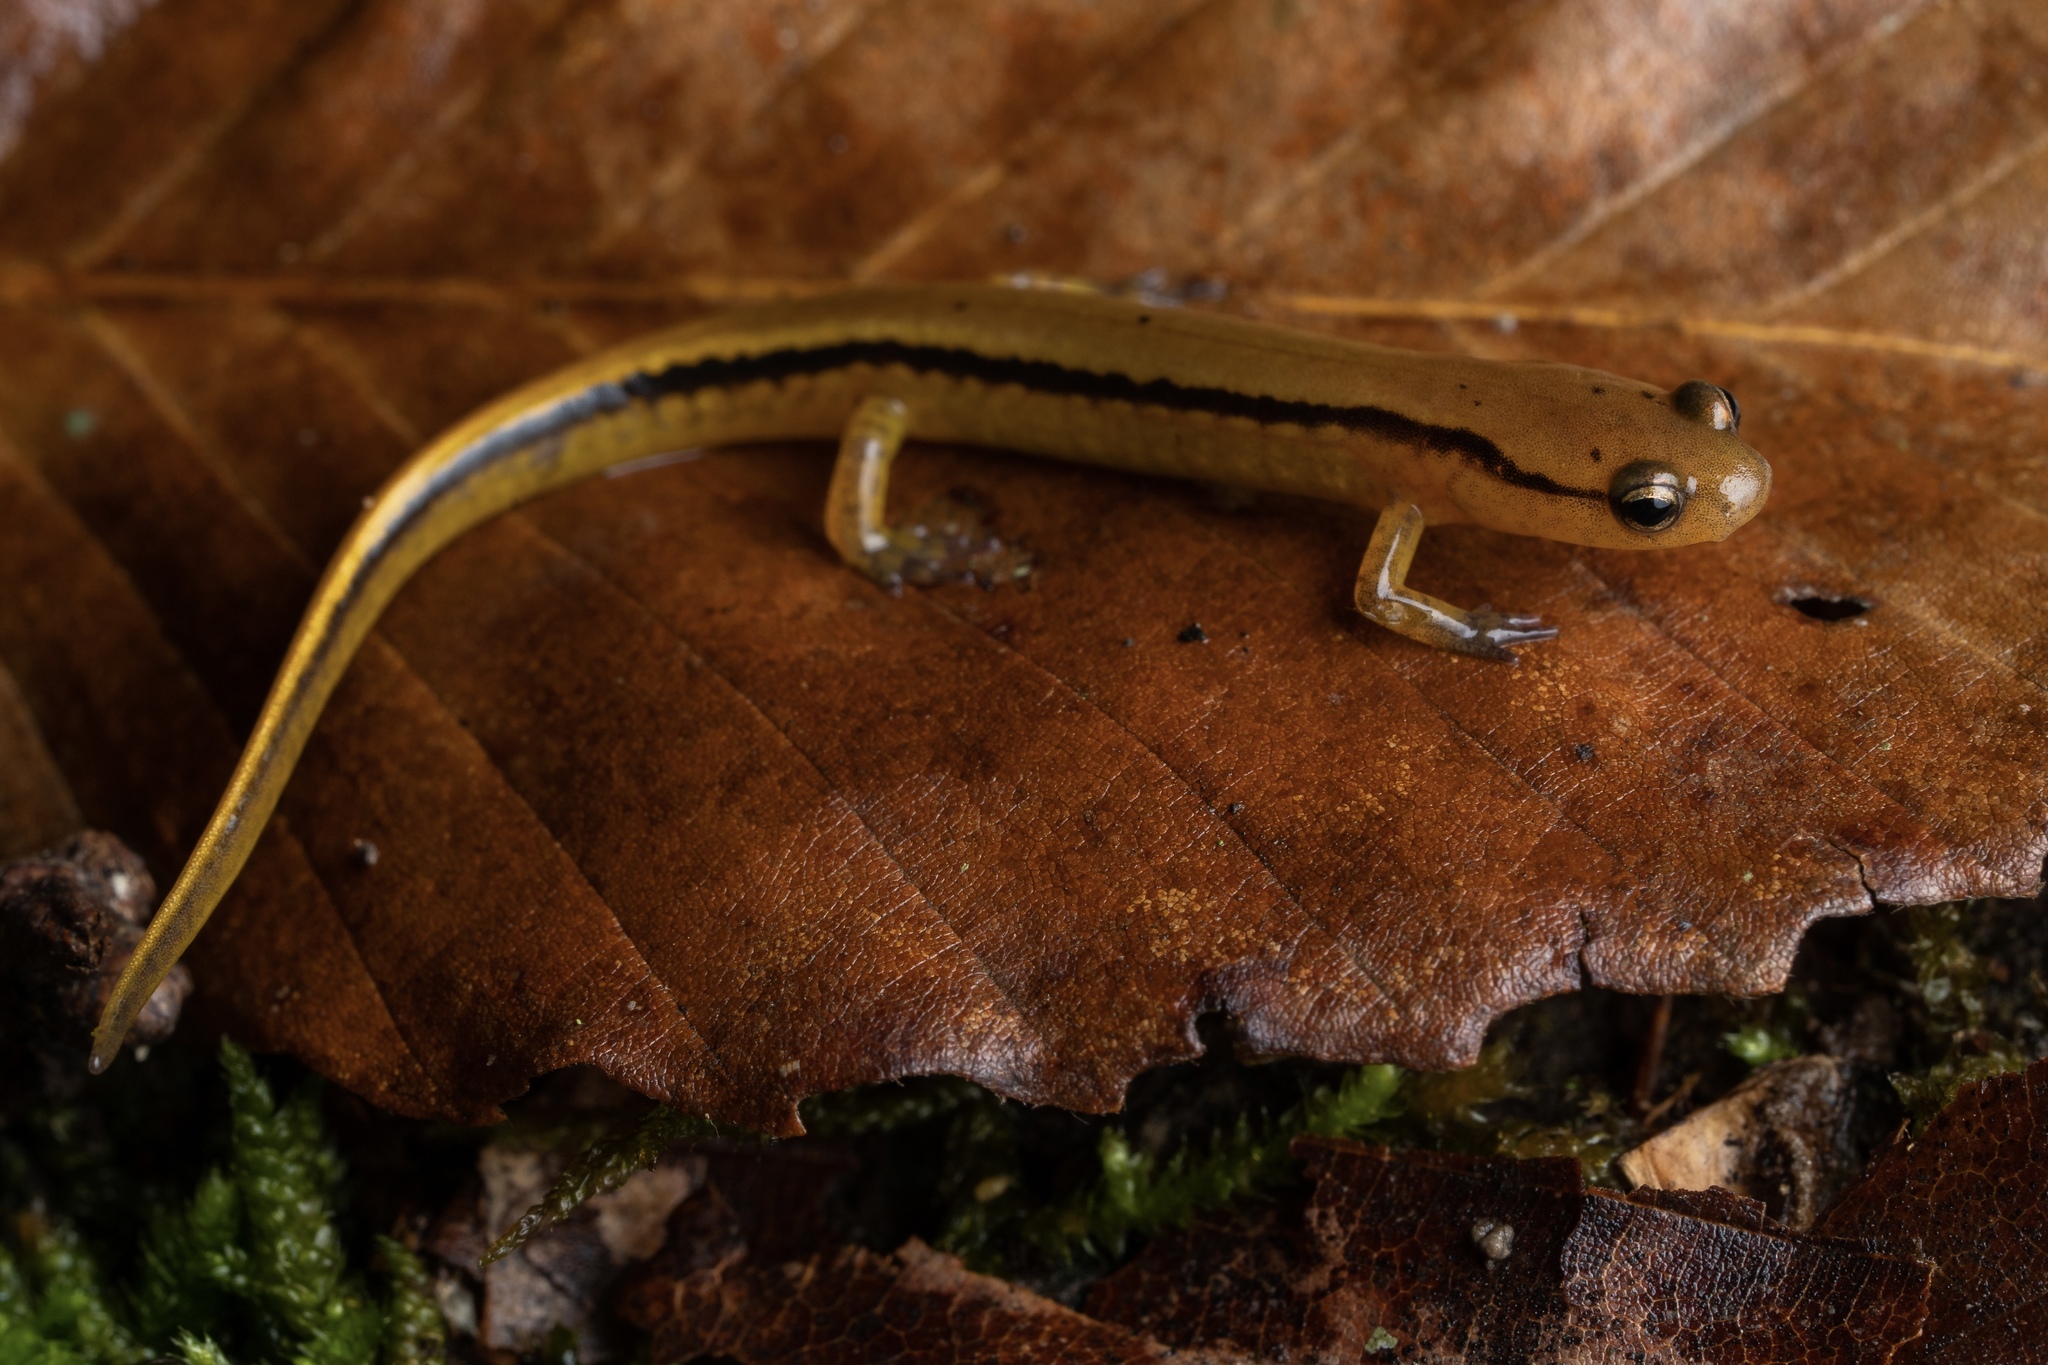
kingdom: Animalia
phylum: Chordata
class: Amphibia
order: Caudata
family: Plethodontidae
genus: Eurycea
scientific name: Eurycea cirrigera
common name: Southern two-lined salamander
